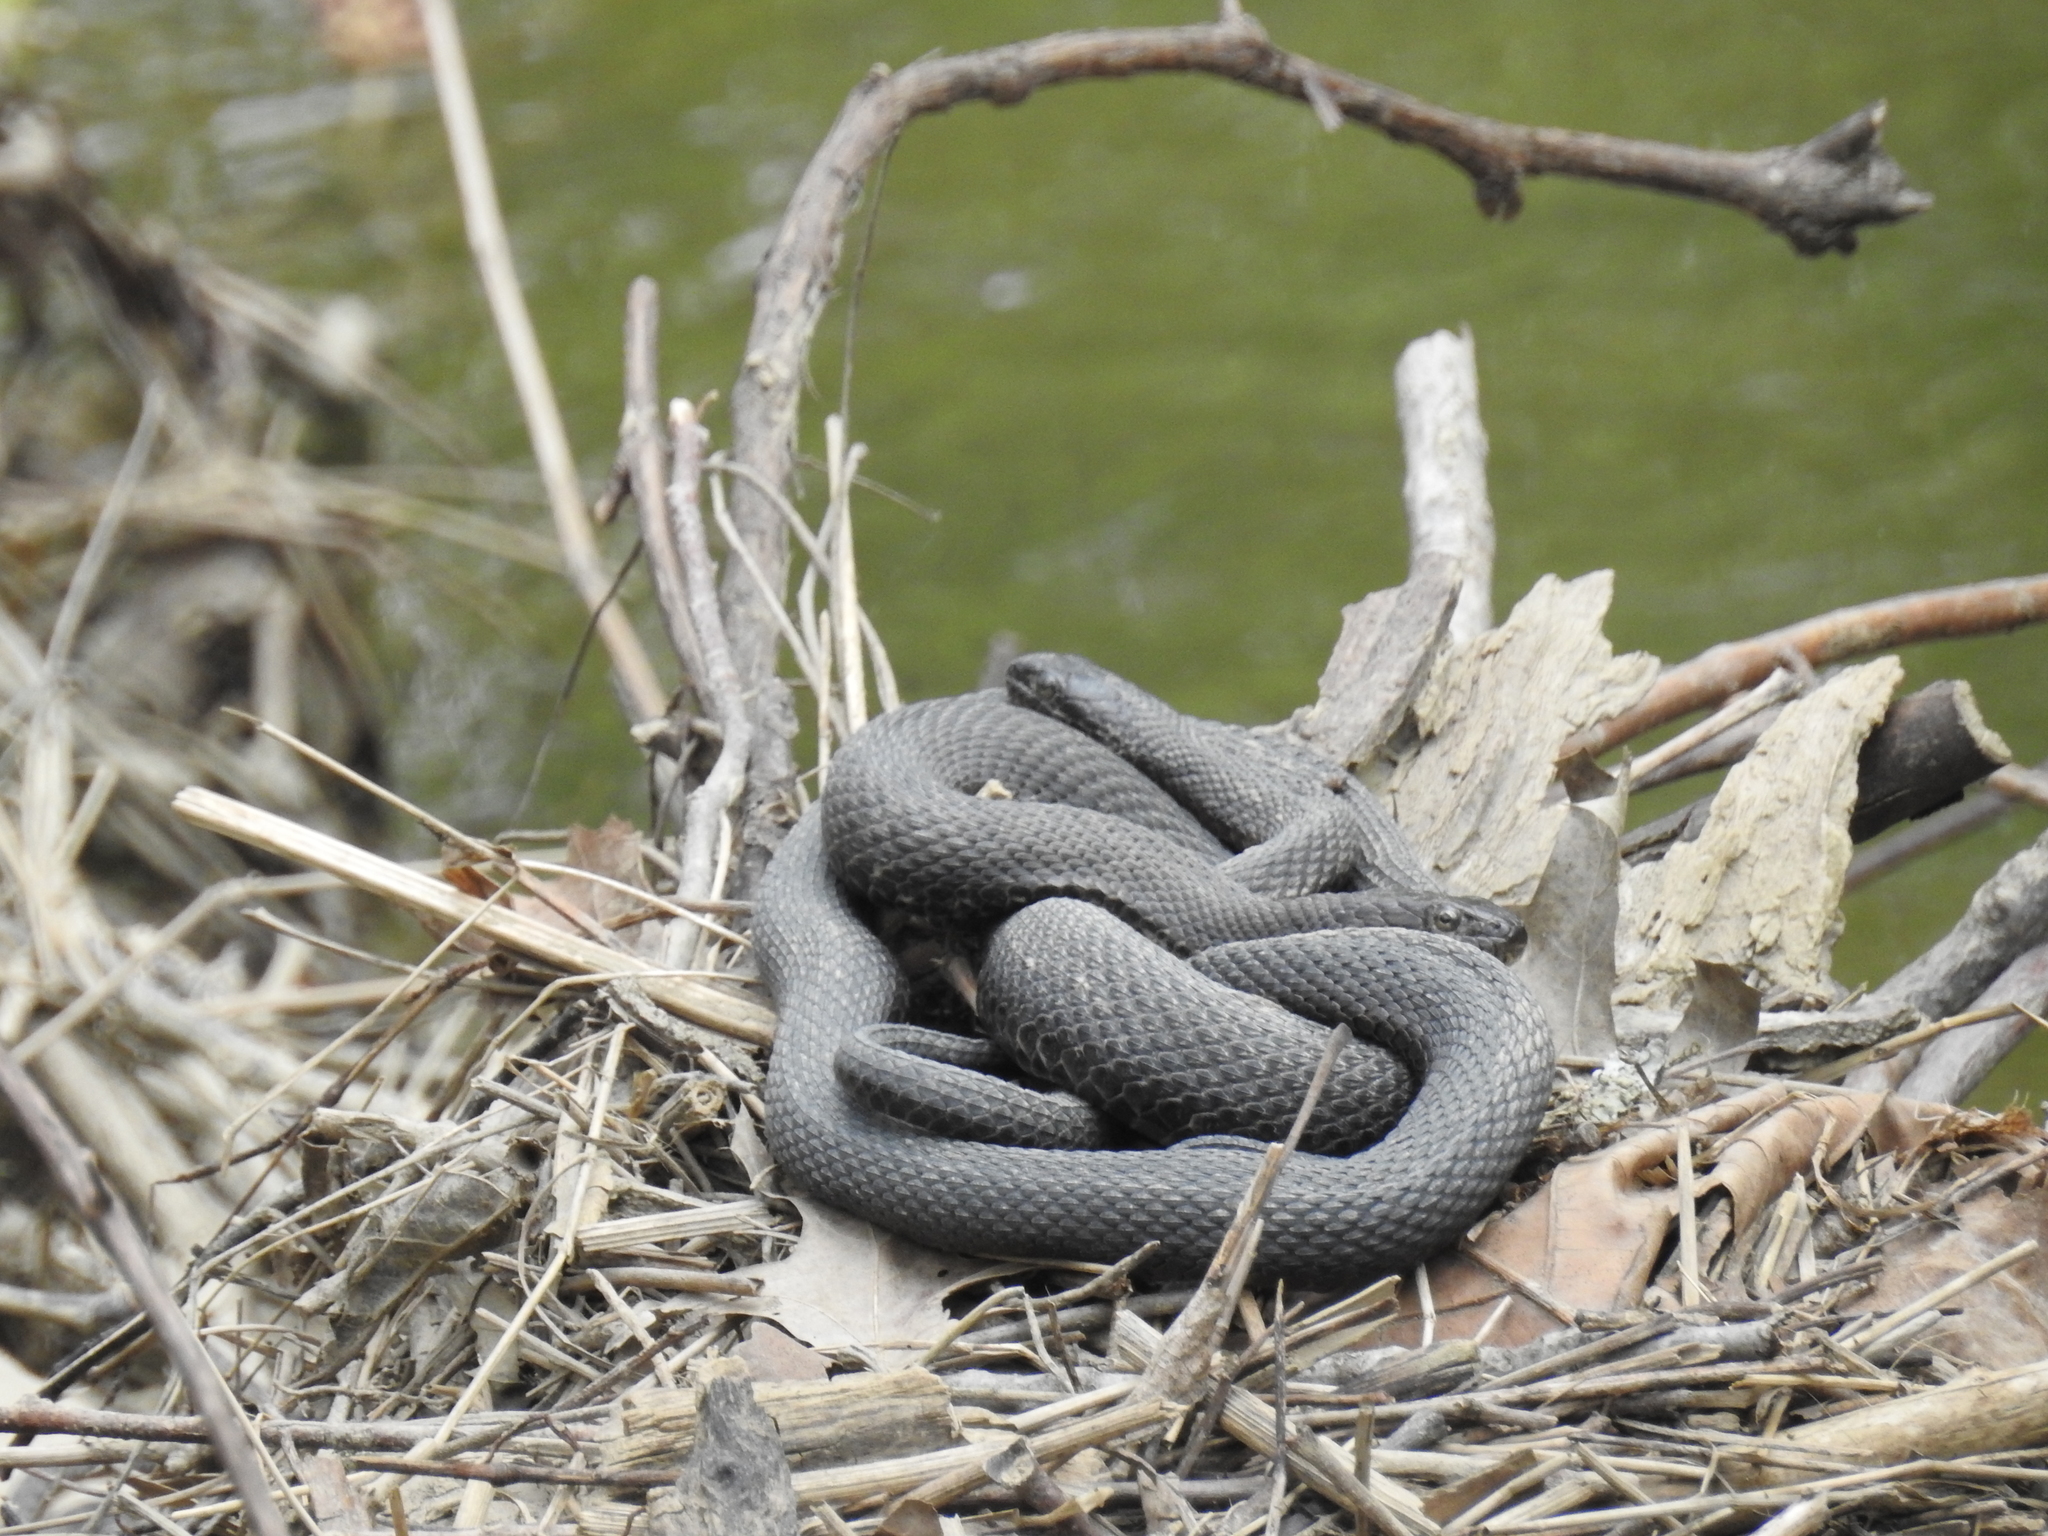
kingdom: Animalia
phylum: Chordata
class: Squamata
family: Colubridae
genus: Nerodia
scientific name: Nerodia sipedon
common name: Northern water snake
